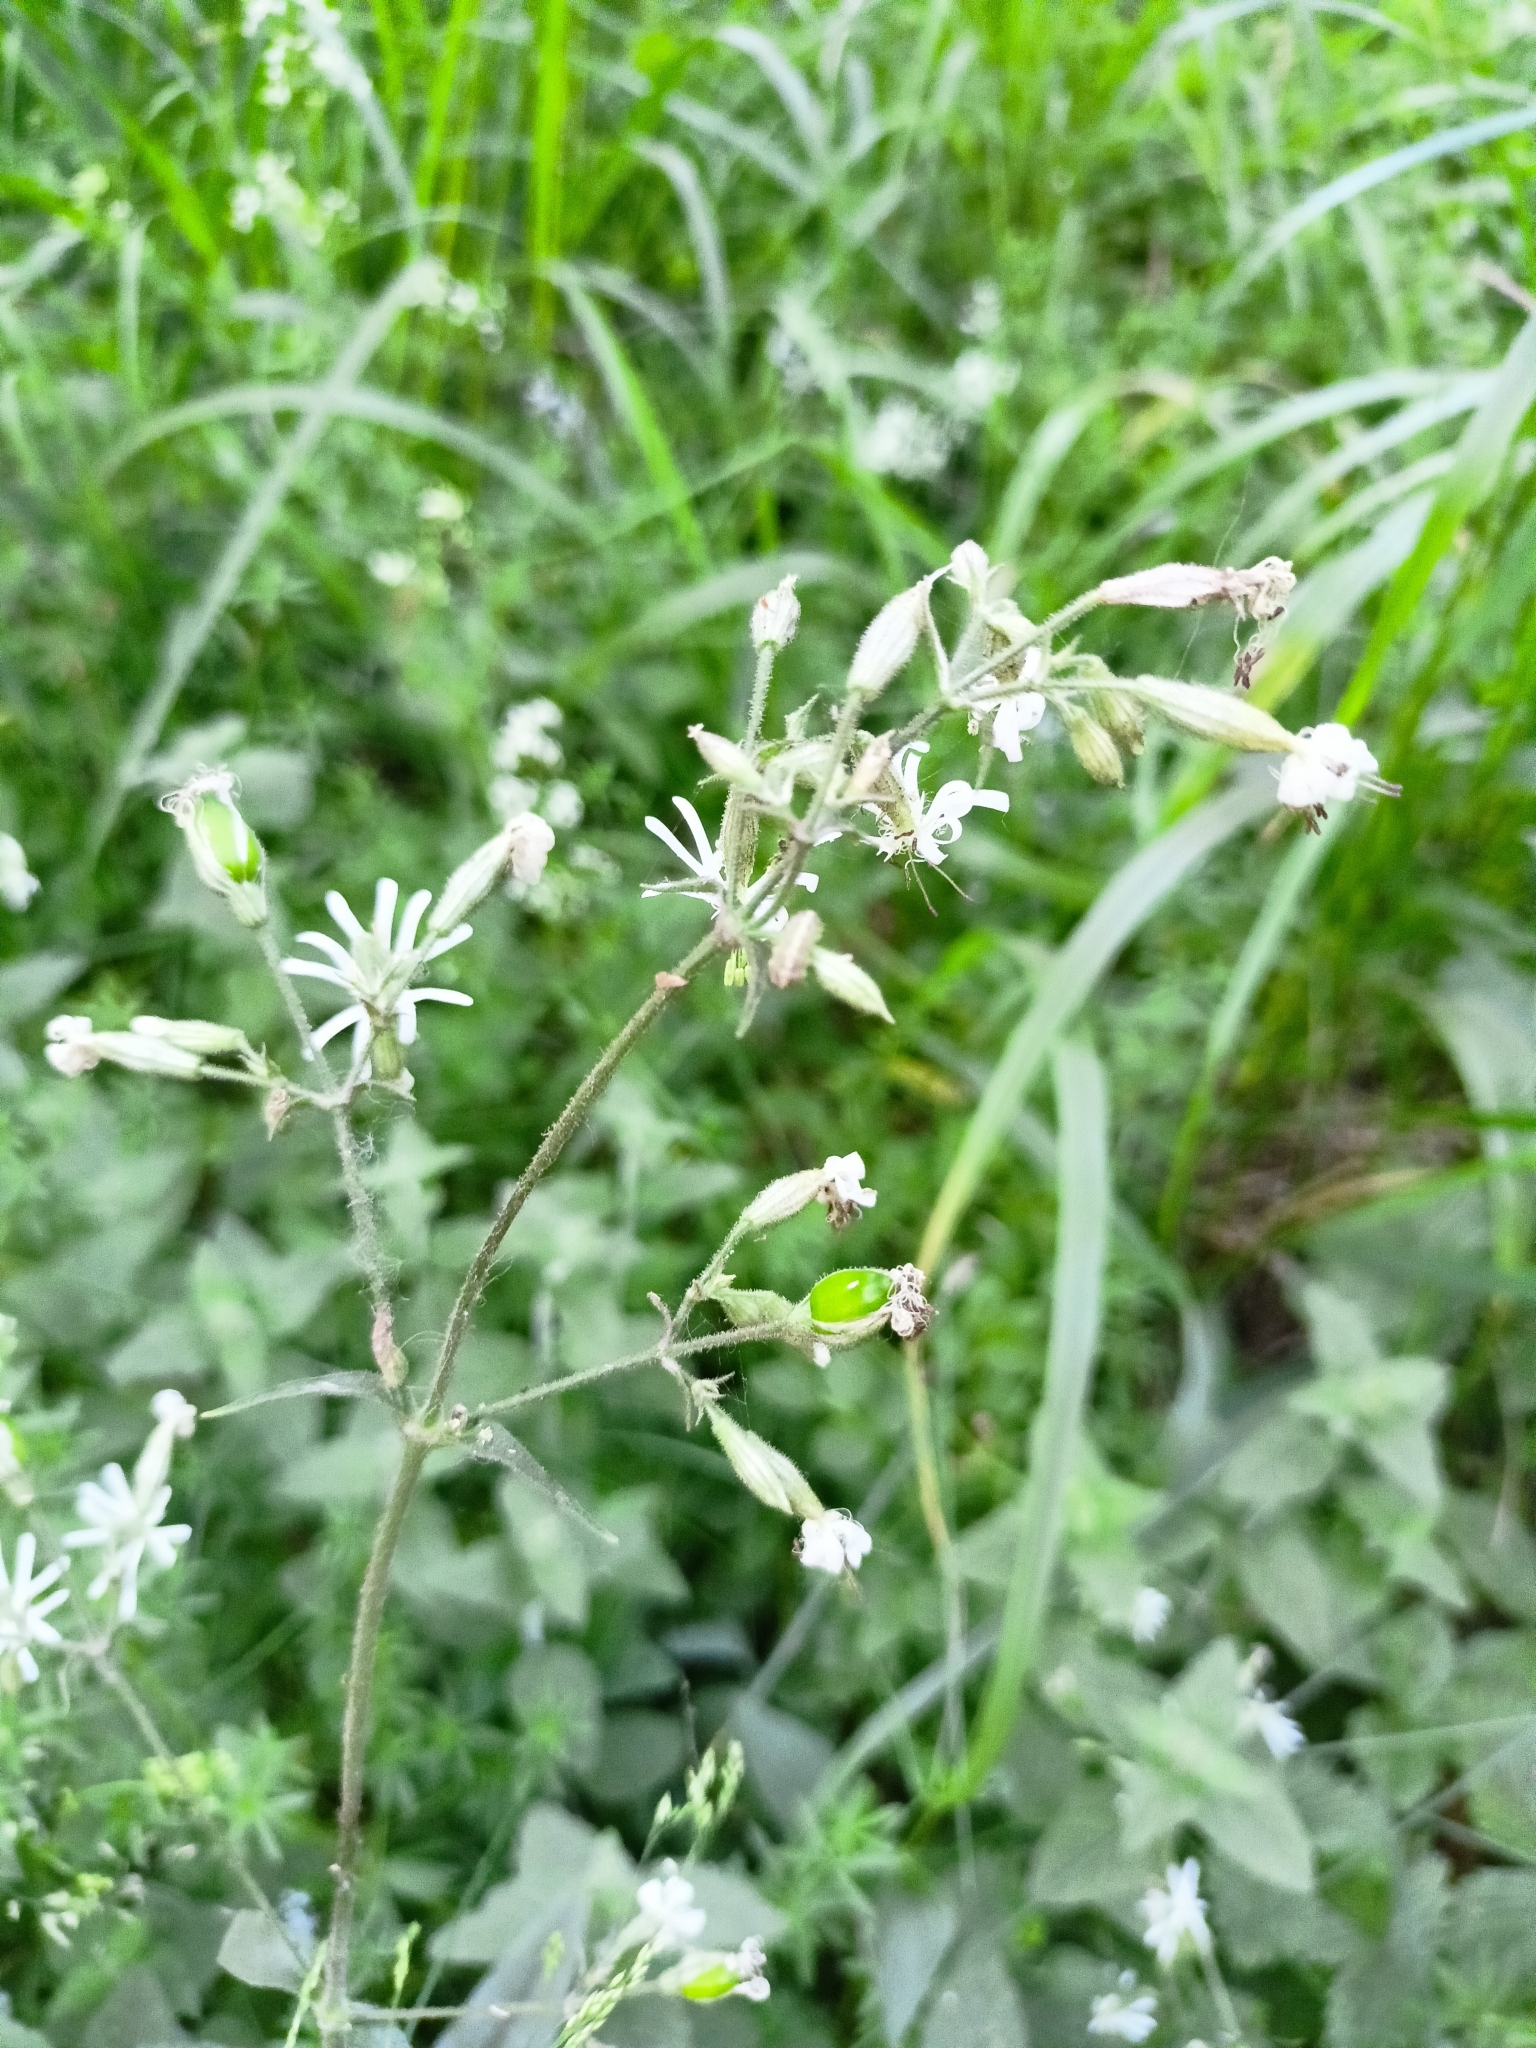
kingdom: Plantae
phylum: Tracheophyta
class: Magnoliopsida
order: Caryophyllales
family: Caryophyllaceae
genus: Silene
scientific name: Silene nutans
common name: Nottingham catchfly
